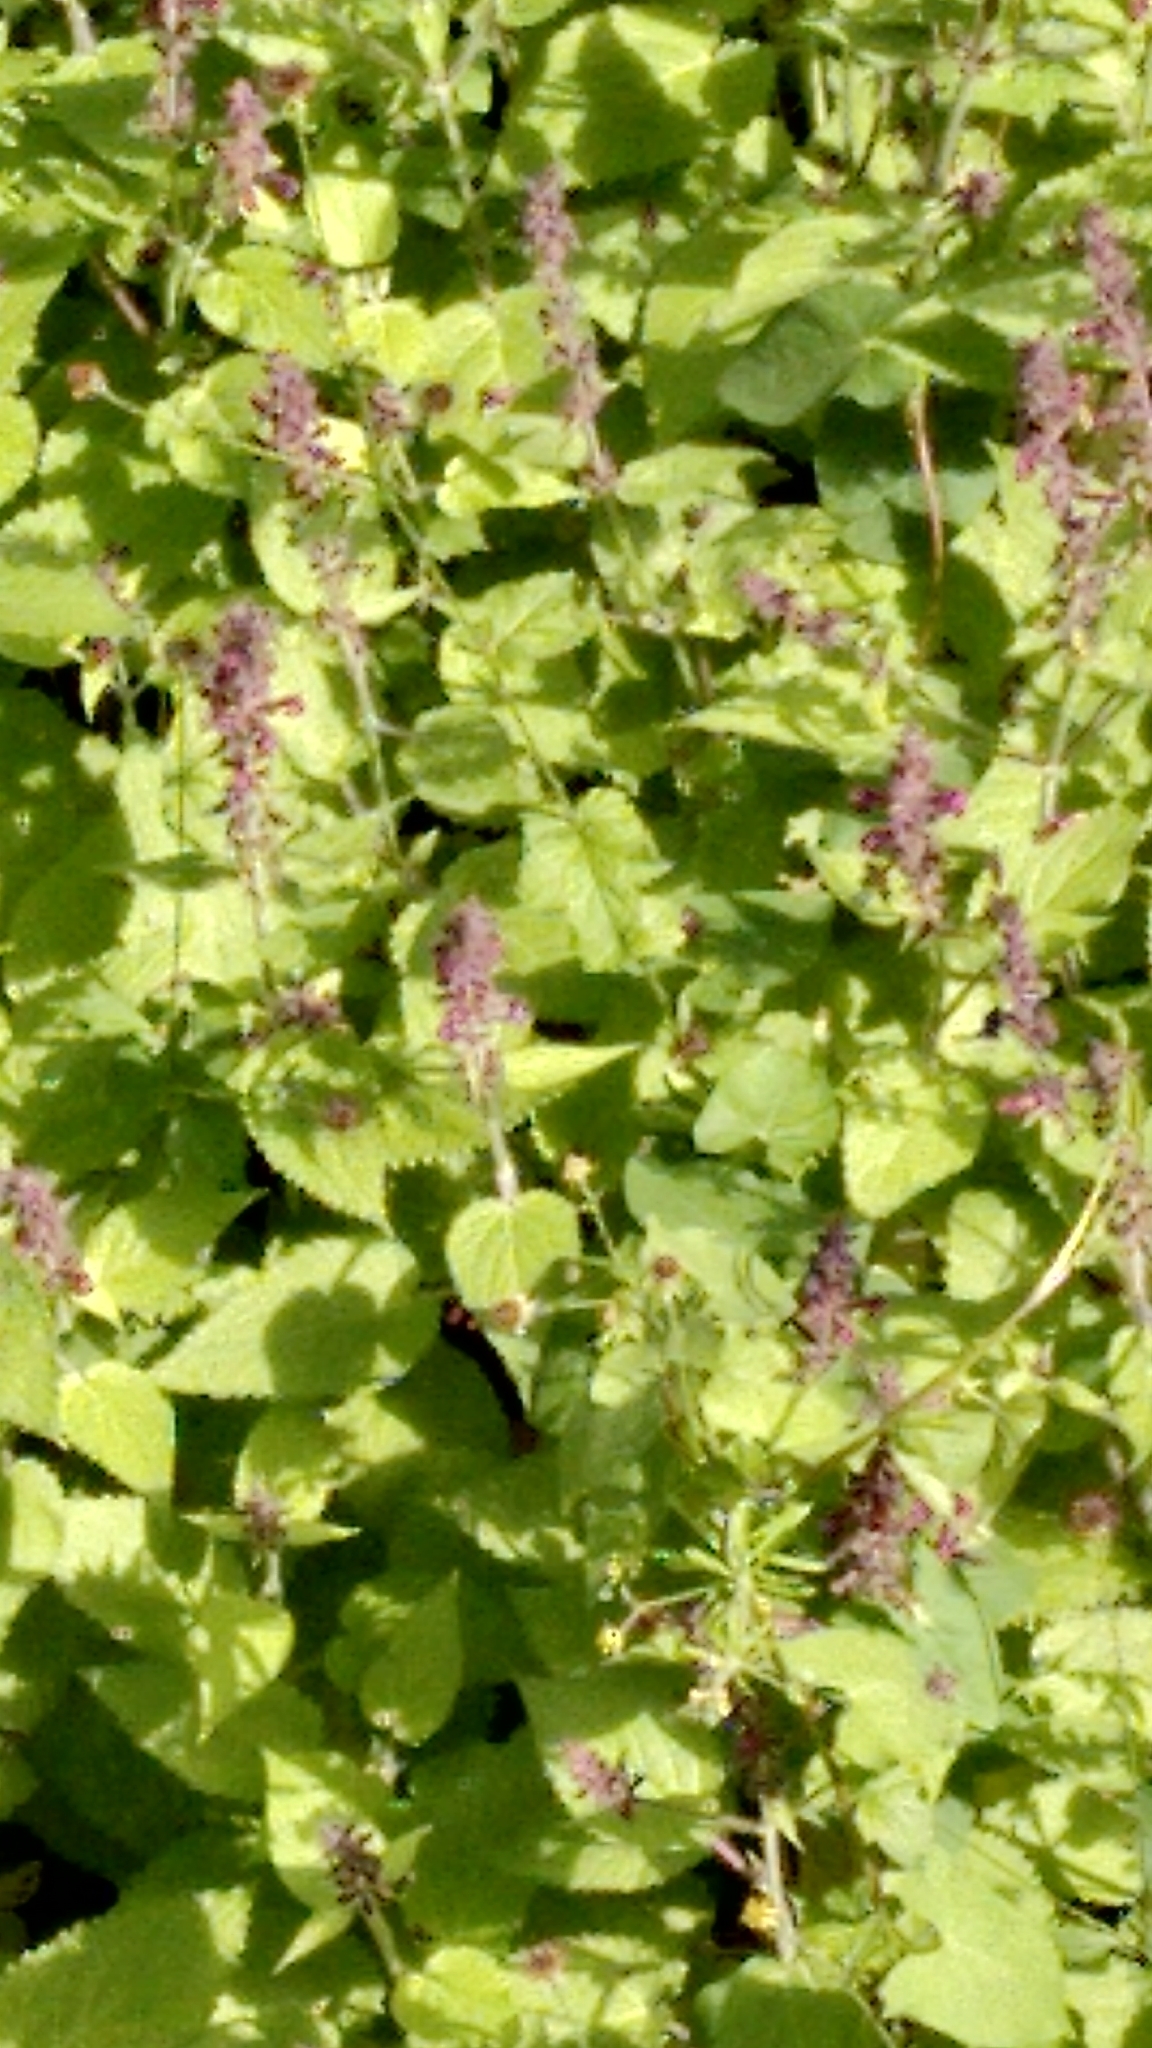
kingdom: Plantae
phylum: Tracheophyta
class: Magnoliopsida
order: Lamiales
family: Lamiaceae
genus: Stachys
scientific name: Stachys sylvatica
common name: Hedge woundwort
